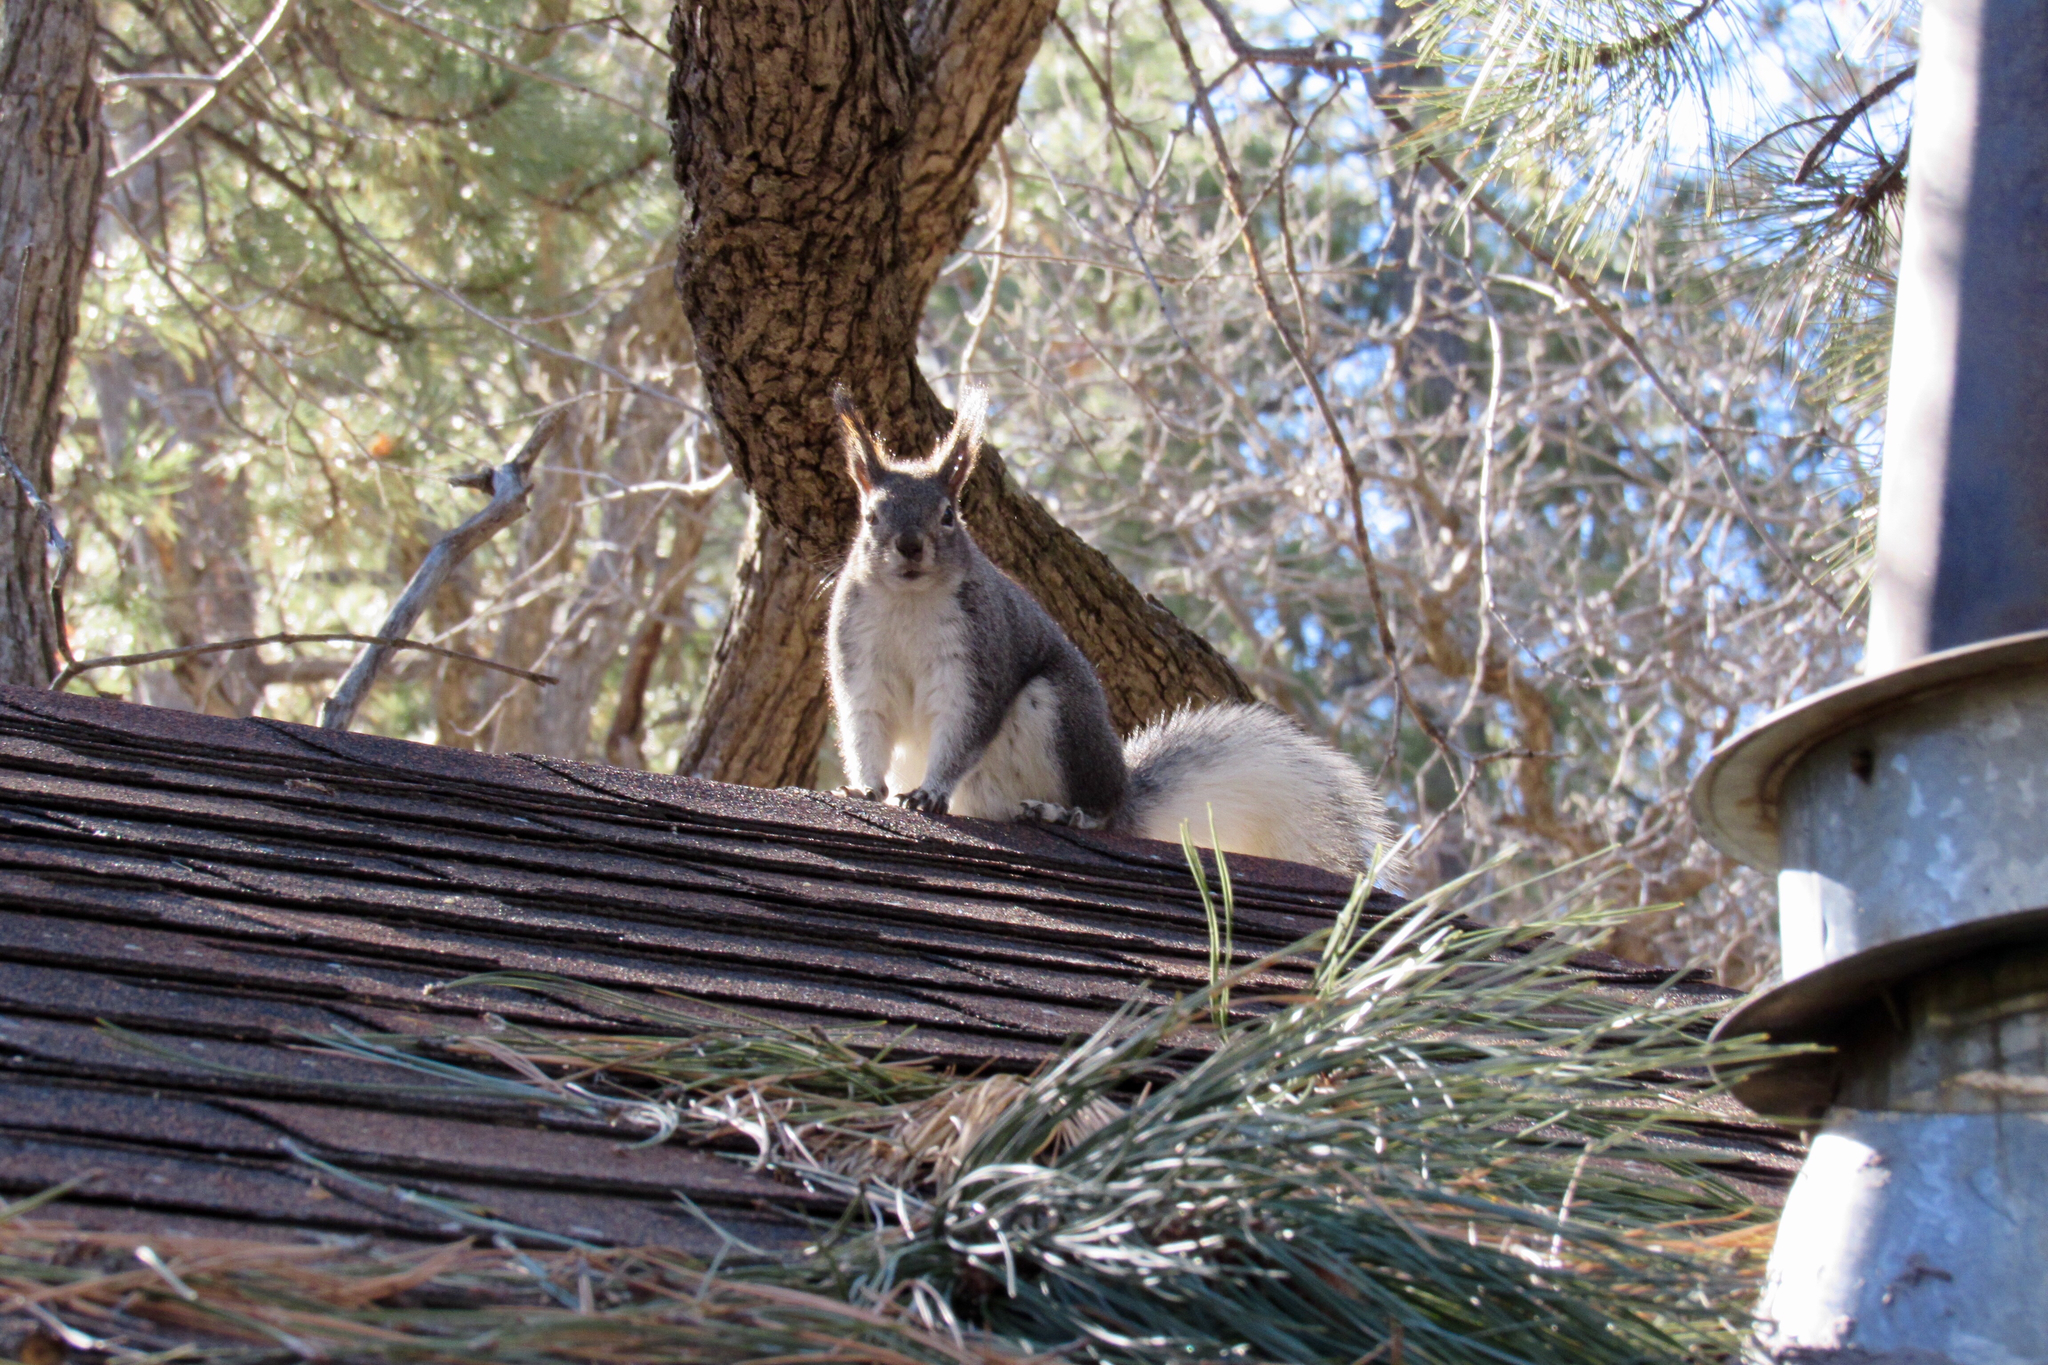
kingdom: Animalia
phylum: Chordata
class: Mammalia
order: Rodentia
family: Sciuridae
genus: Sciurus
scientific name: Sciurus aberti
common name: Abert's squirrel
